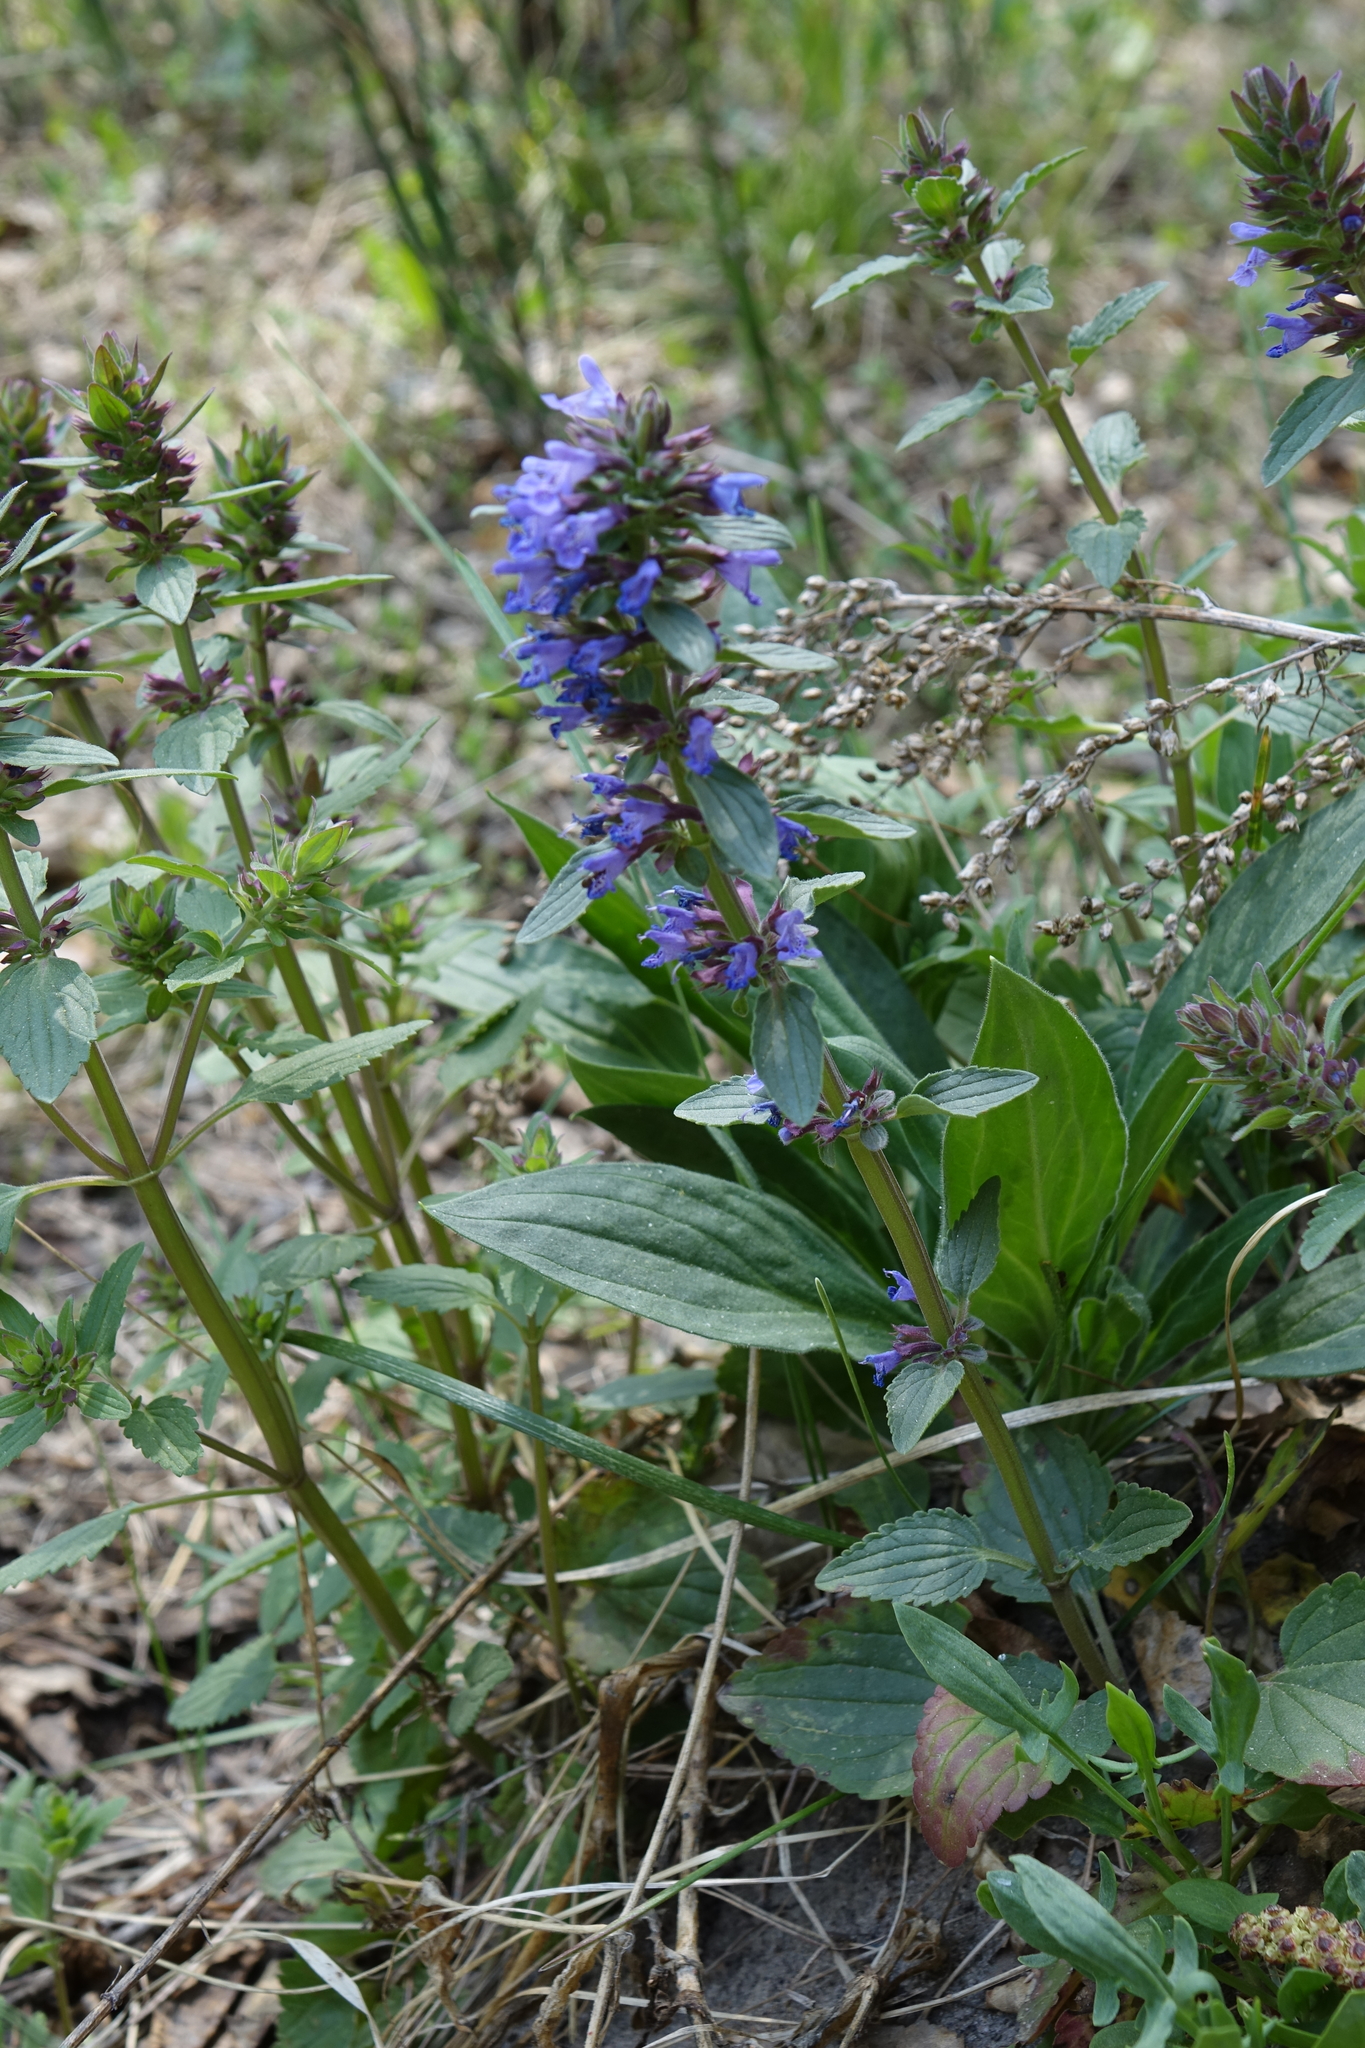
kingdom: Plantae
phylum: Tracheophyta
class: Magnoliopsida
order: Lamiales
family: Lamiaceae
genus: Dracocephalum
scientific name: Dracocephalum nutans
